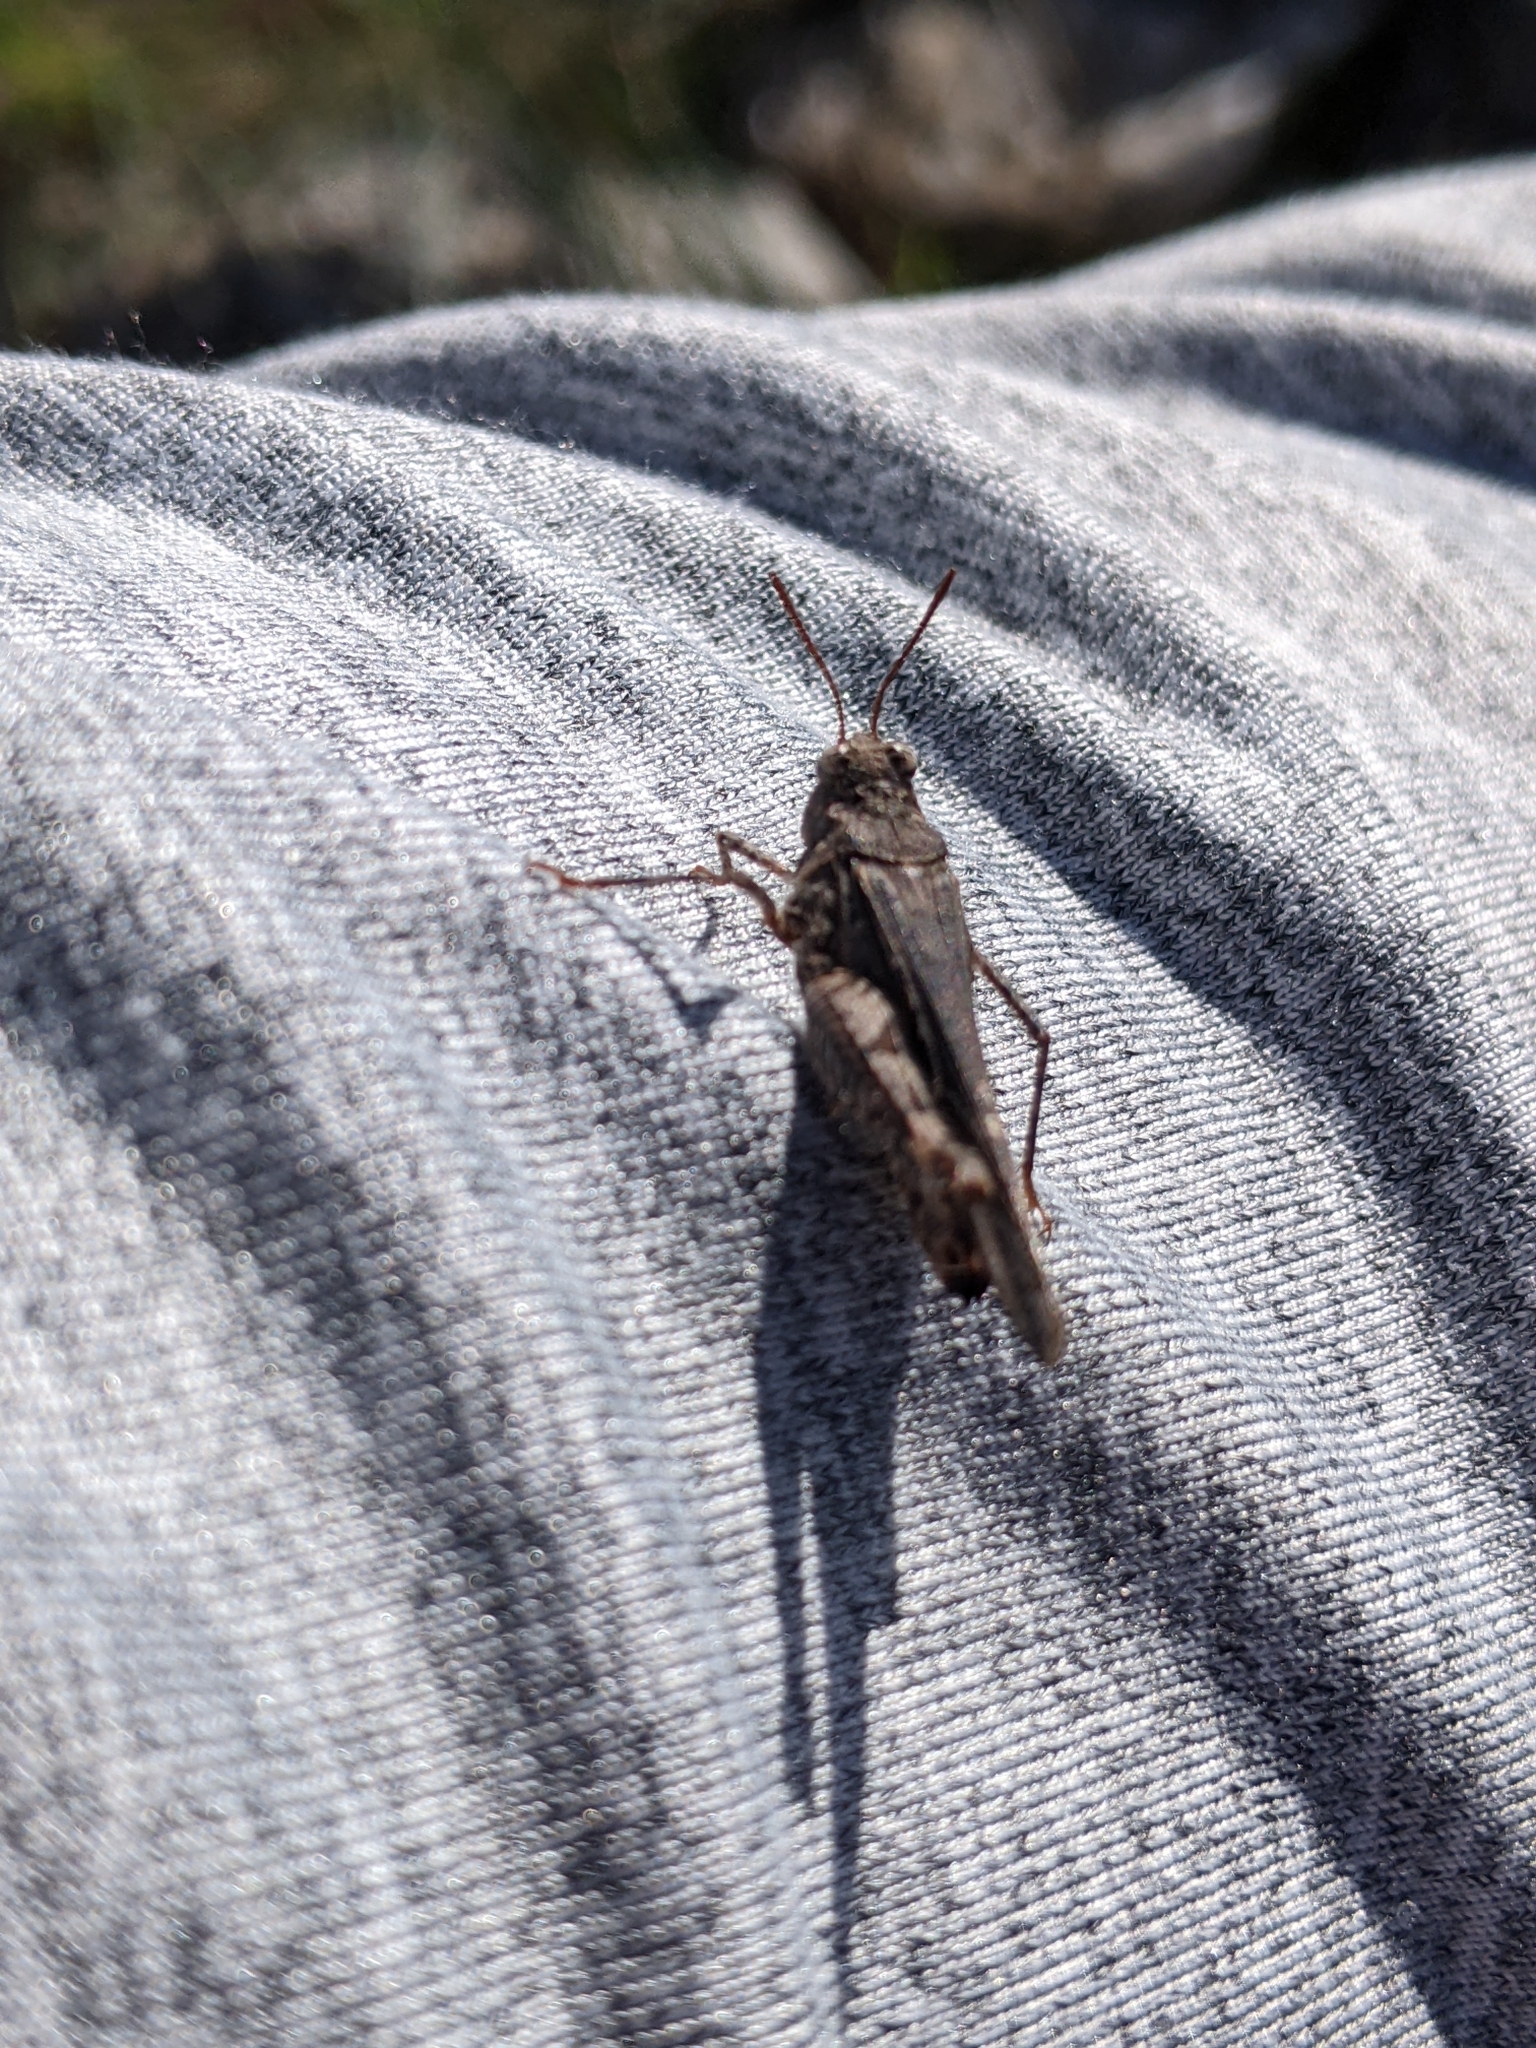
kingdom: Animalia
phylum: Arthropoda
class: Insecta
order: Orthoptera
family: Acrididae
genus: Acrotylus
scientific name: Acrotylus insubricus
